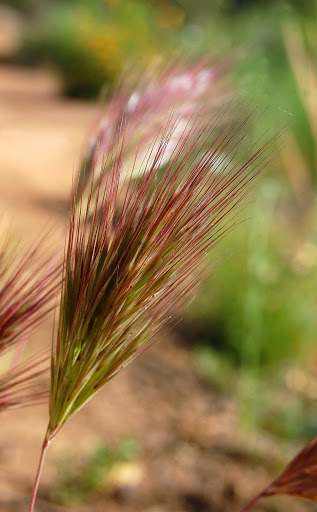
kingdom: Plantae
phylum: Tracheophyta
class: Liliopsida
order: Poales
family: Poaceae
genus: Bromus
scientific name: Bromus madritensis
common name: Compact brome
